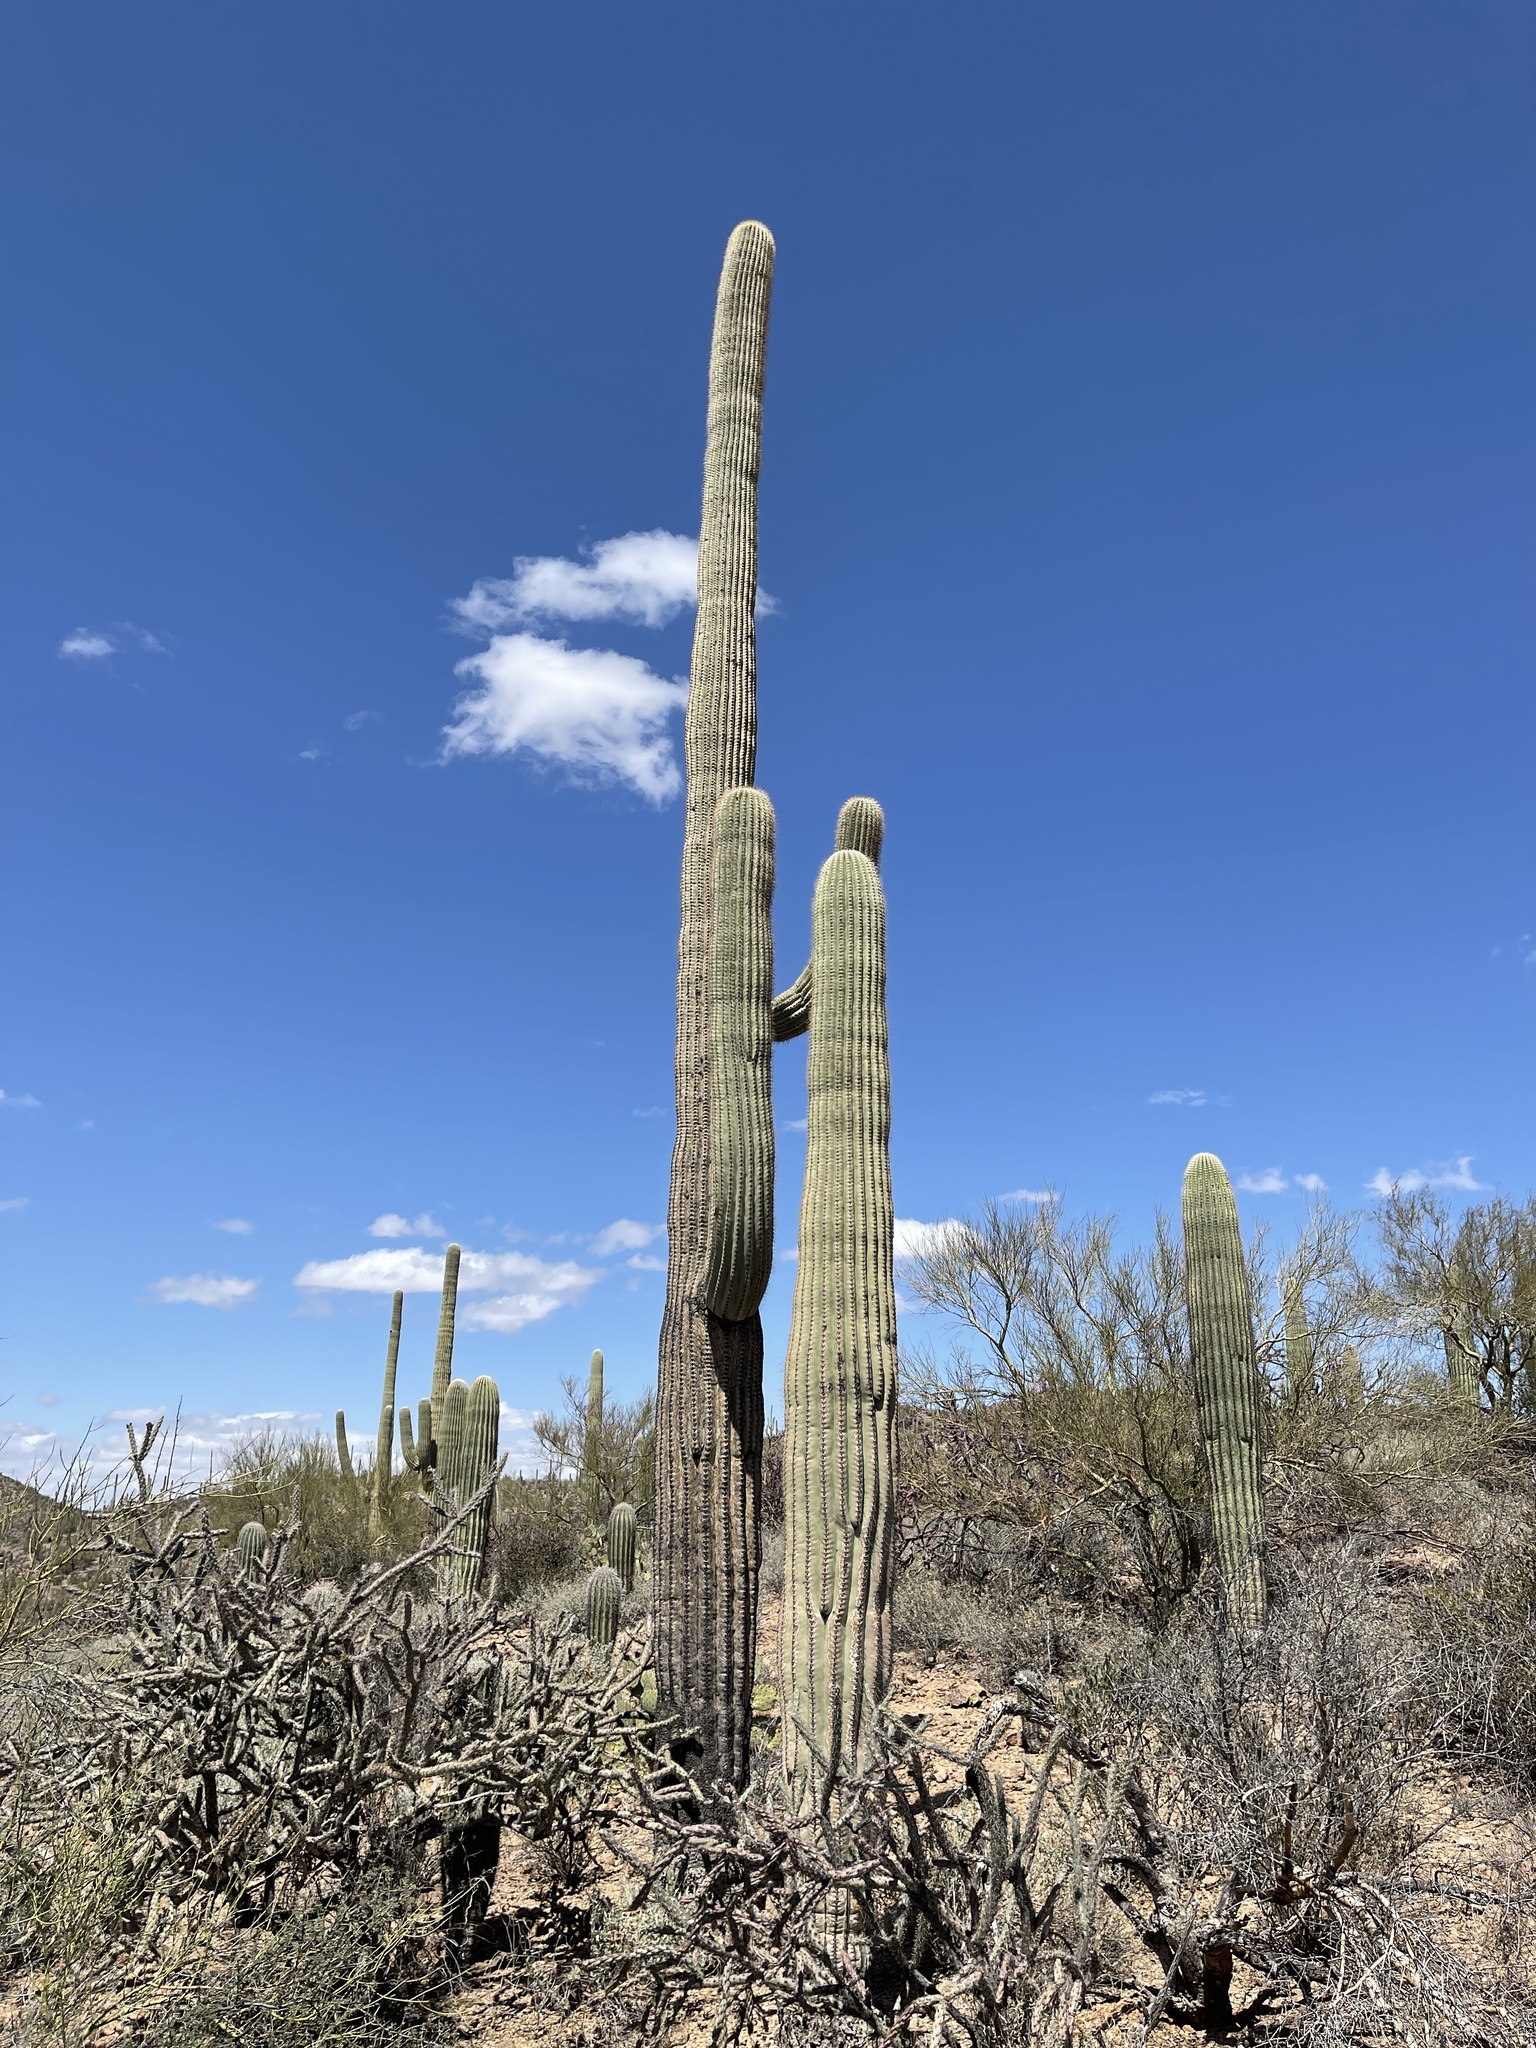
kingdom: Plantae
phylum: Tracheophyta
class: Magnoliopsida
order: Caryophyllales
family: Cactaceae
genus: Carnegiea
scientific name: Carnegiea gigantea
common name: Saguaro
